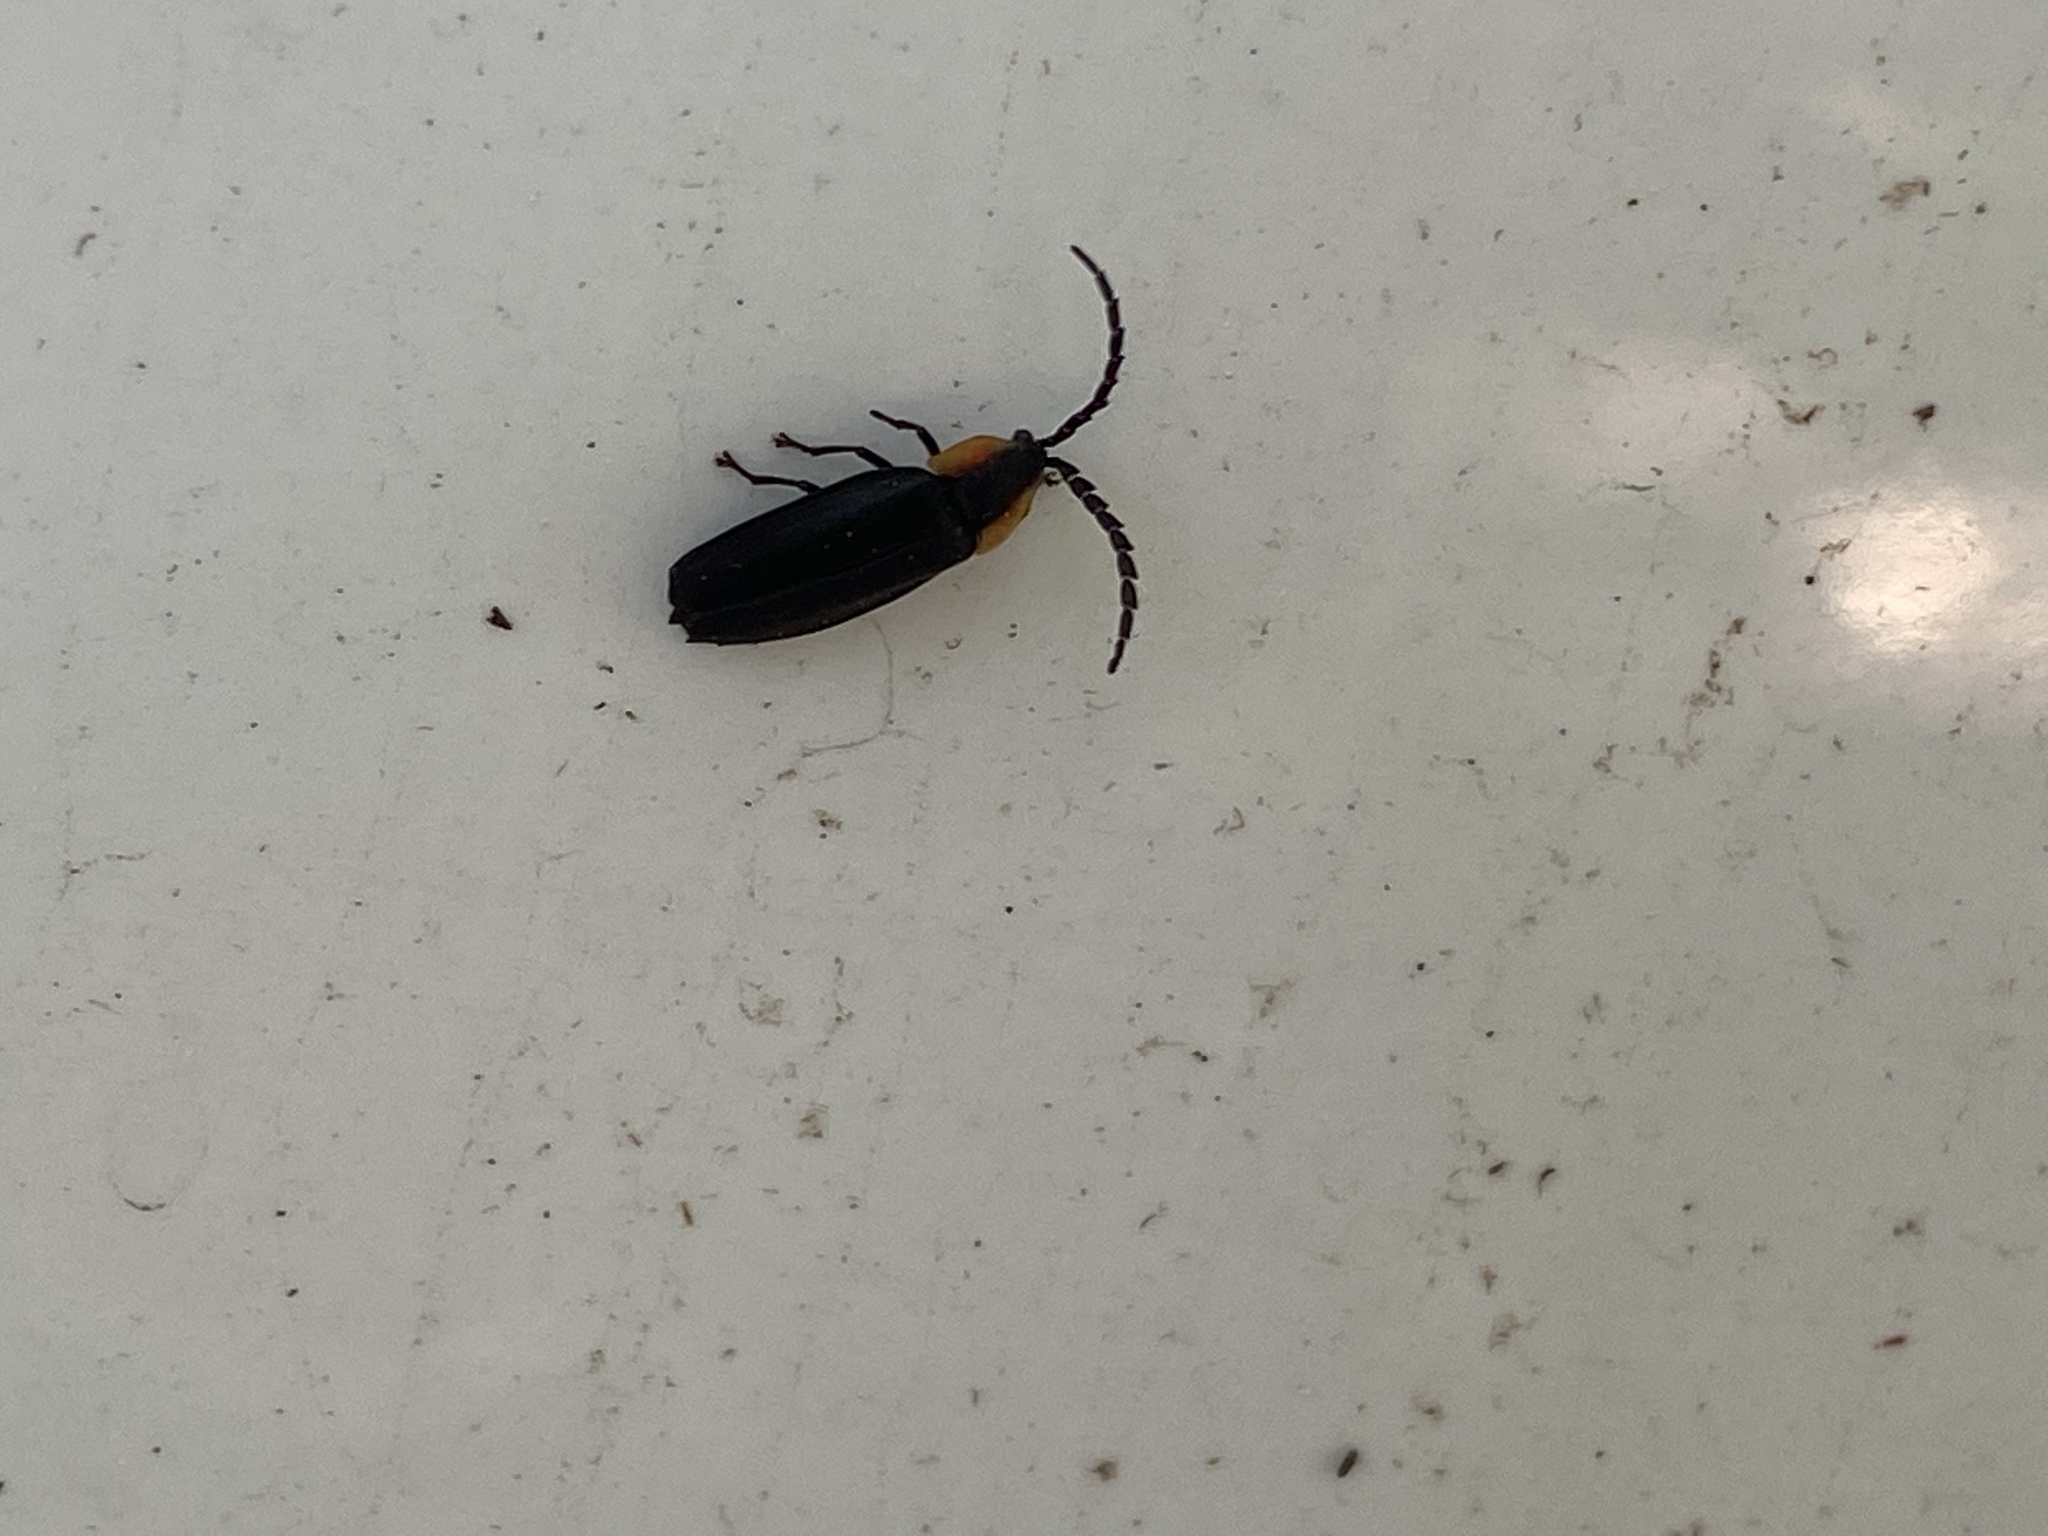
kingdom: Animalia
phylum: Arthropoda
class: Insecta
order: Coleoptera
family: Lampyridae
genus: Lucidota
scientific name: Lucidota atra
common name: Black firefly
